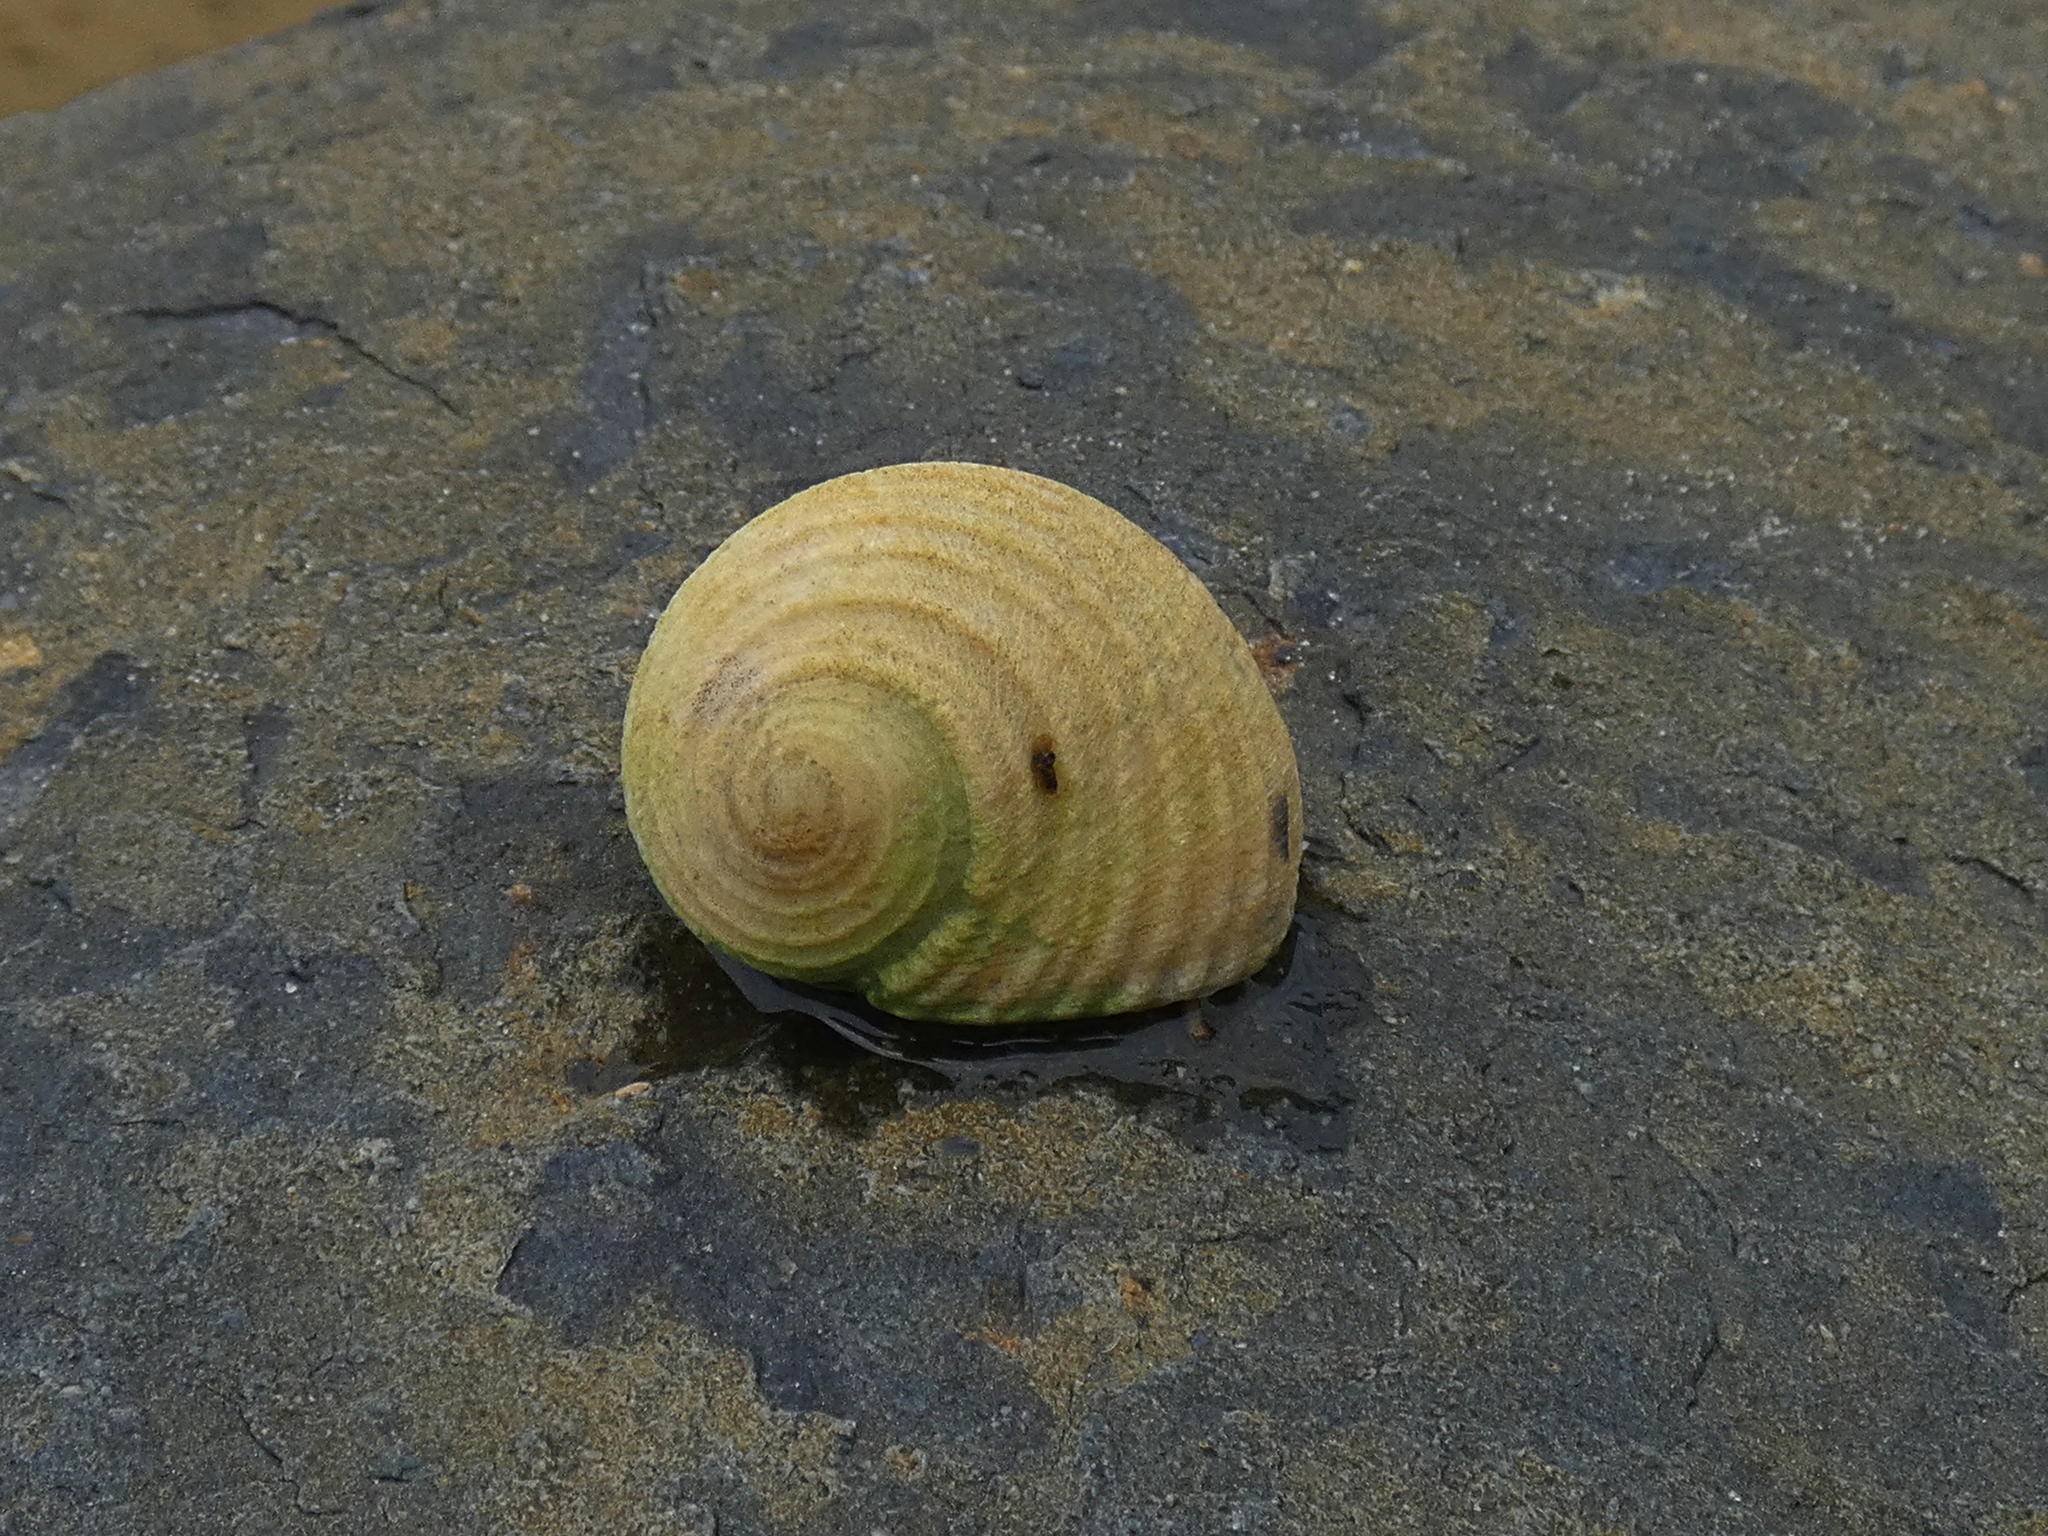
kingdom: Animalia
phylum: Mollusca
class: Gastropoda
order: Cycloneritida
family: Neritidae
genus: Nerita
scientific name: Nerita plicata
